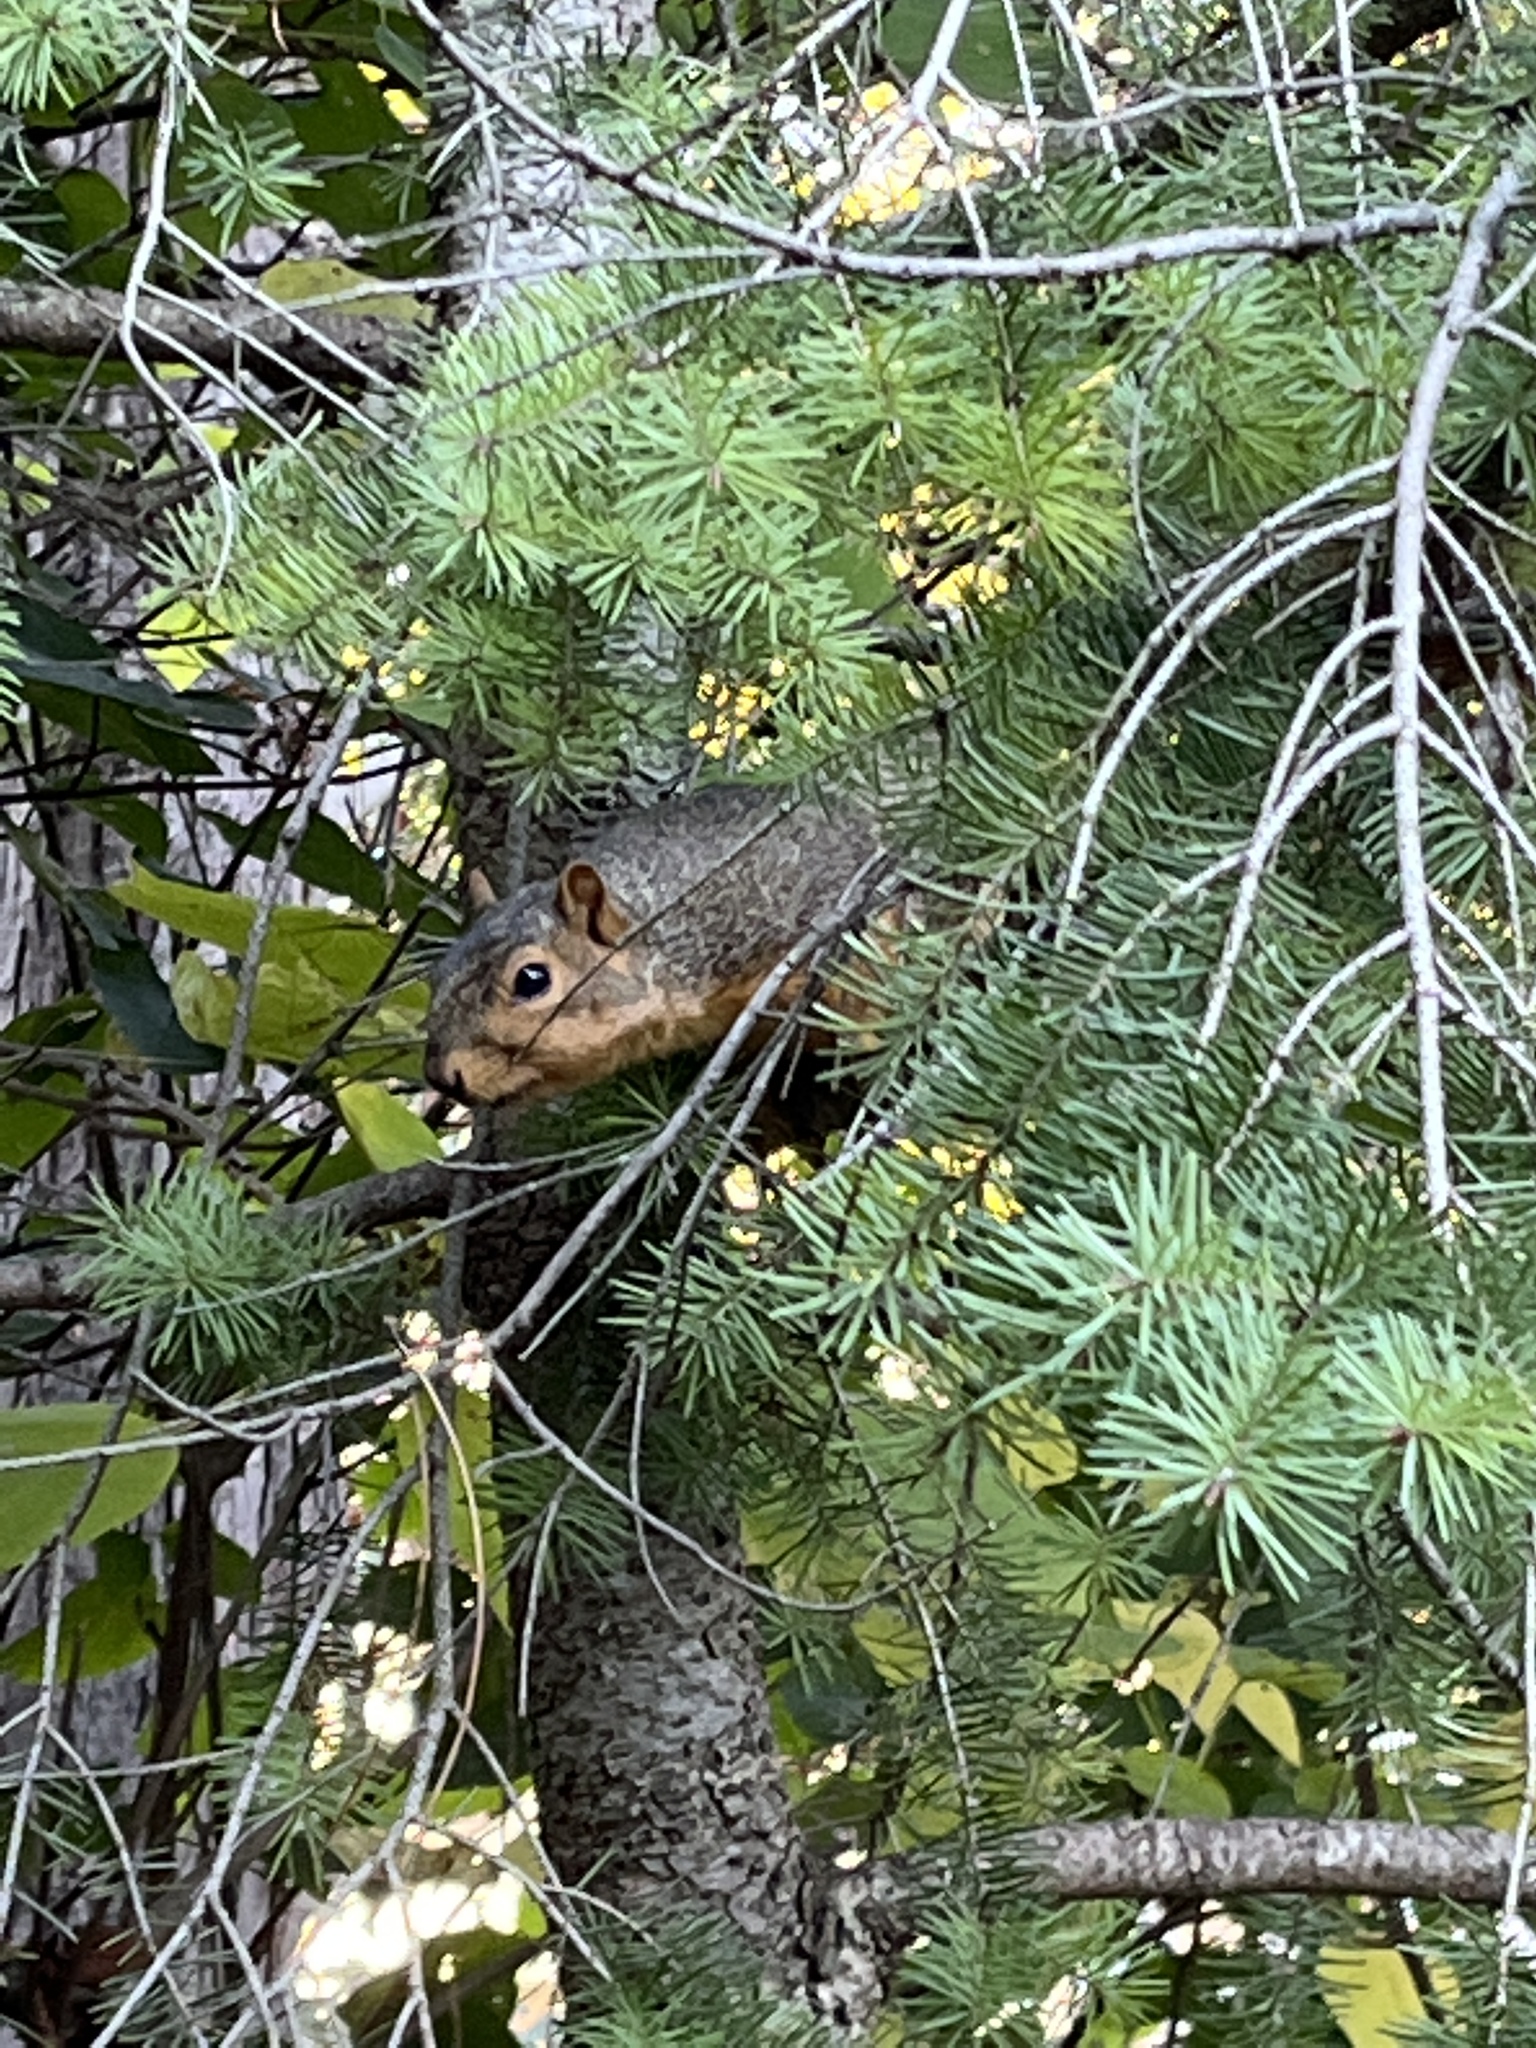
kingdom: Animalia
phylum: Chordata
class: Mammalia
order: Rodentia
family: Sciuridae
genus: Sciurus
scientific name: Sciurus niger
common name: Fox squirrel
